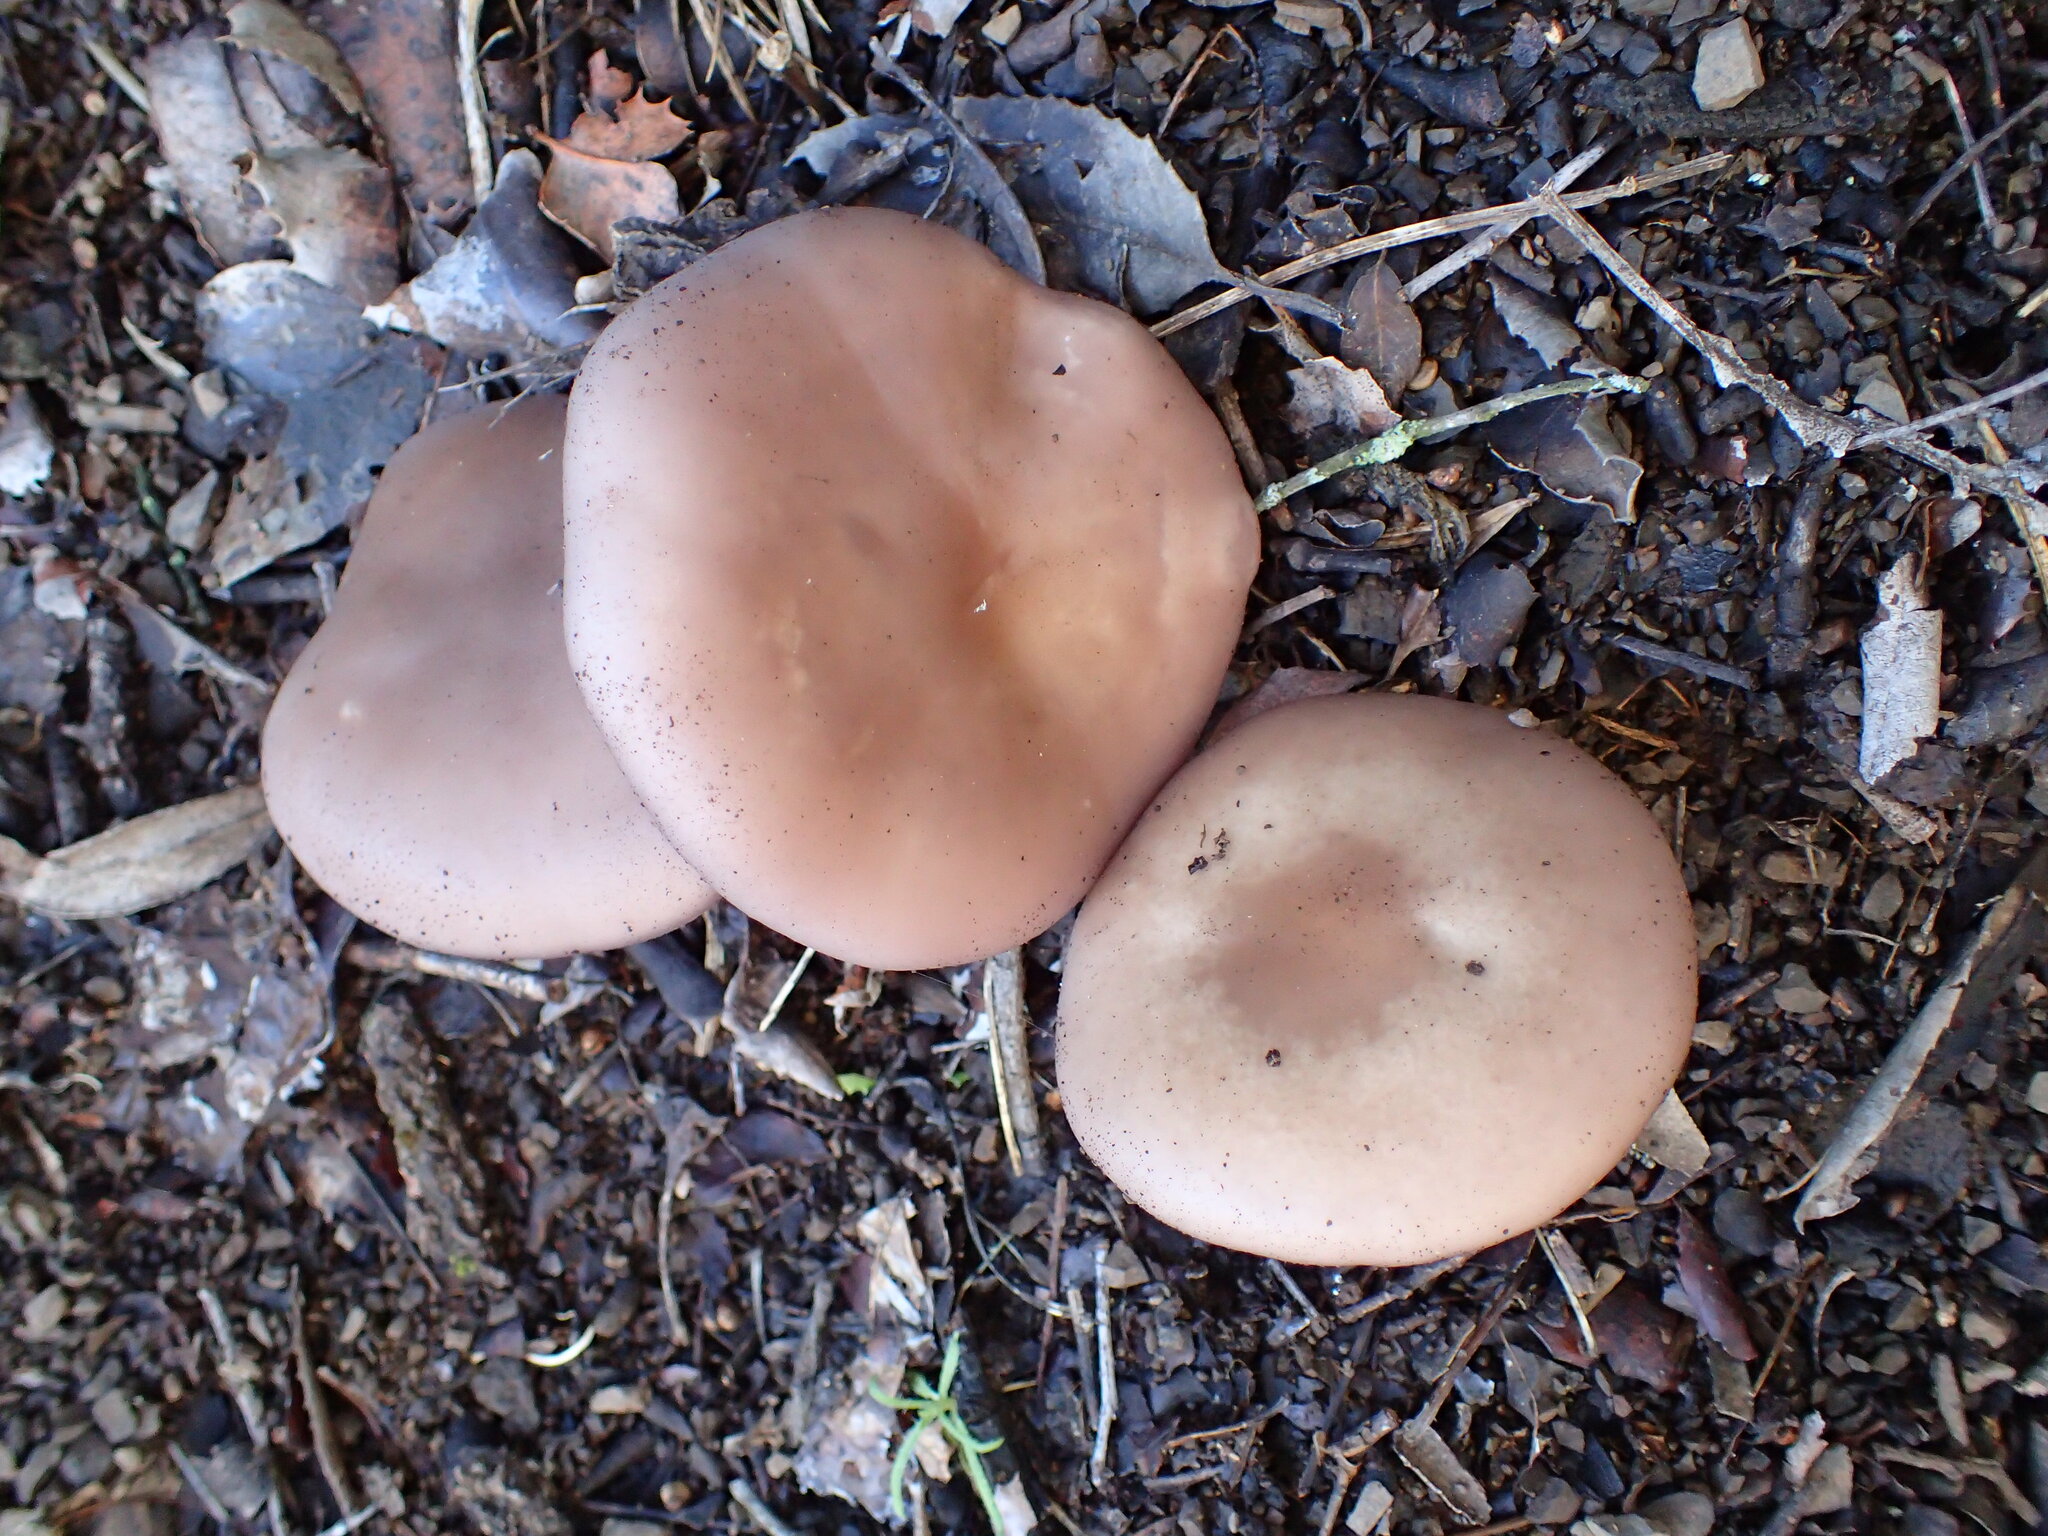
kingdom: Fungi
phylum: Basidiomycota
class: Agaricomycetes
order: Agaricales
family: Tricholomataceae
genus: Collybia
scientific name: Collybia
